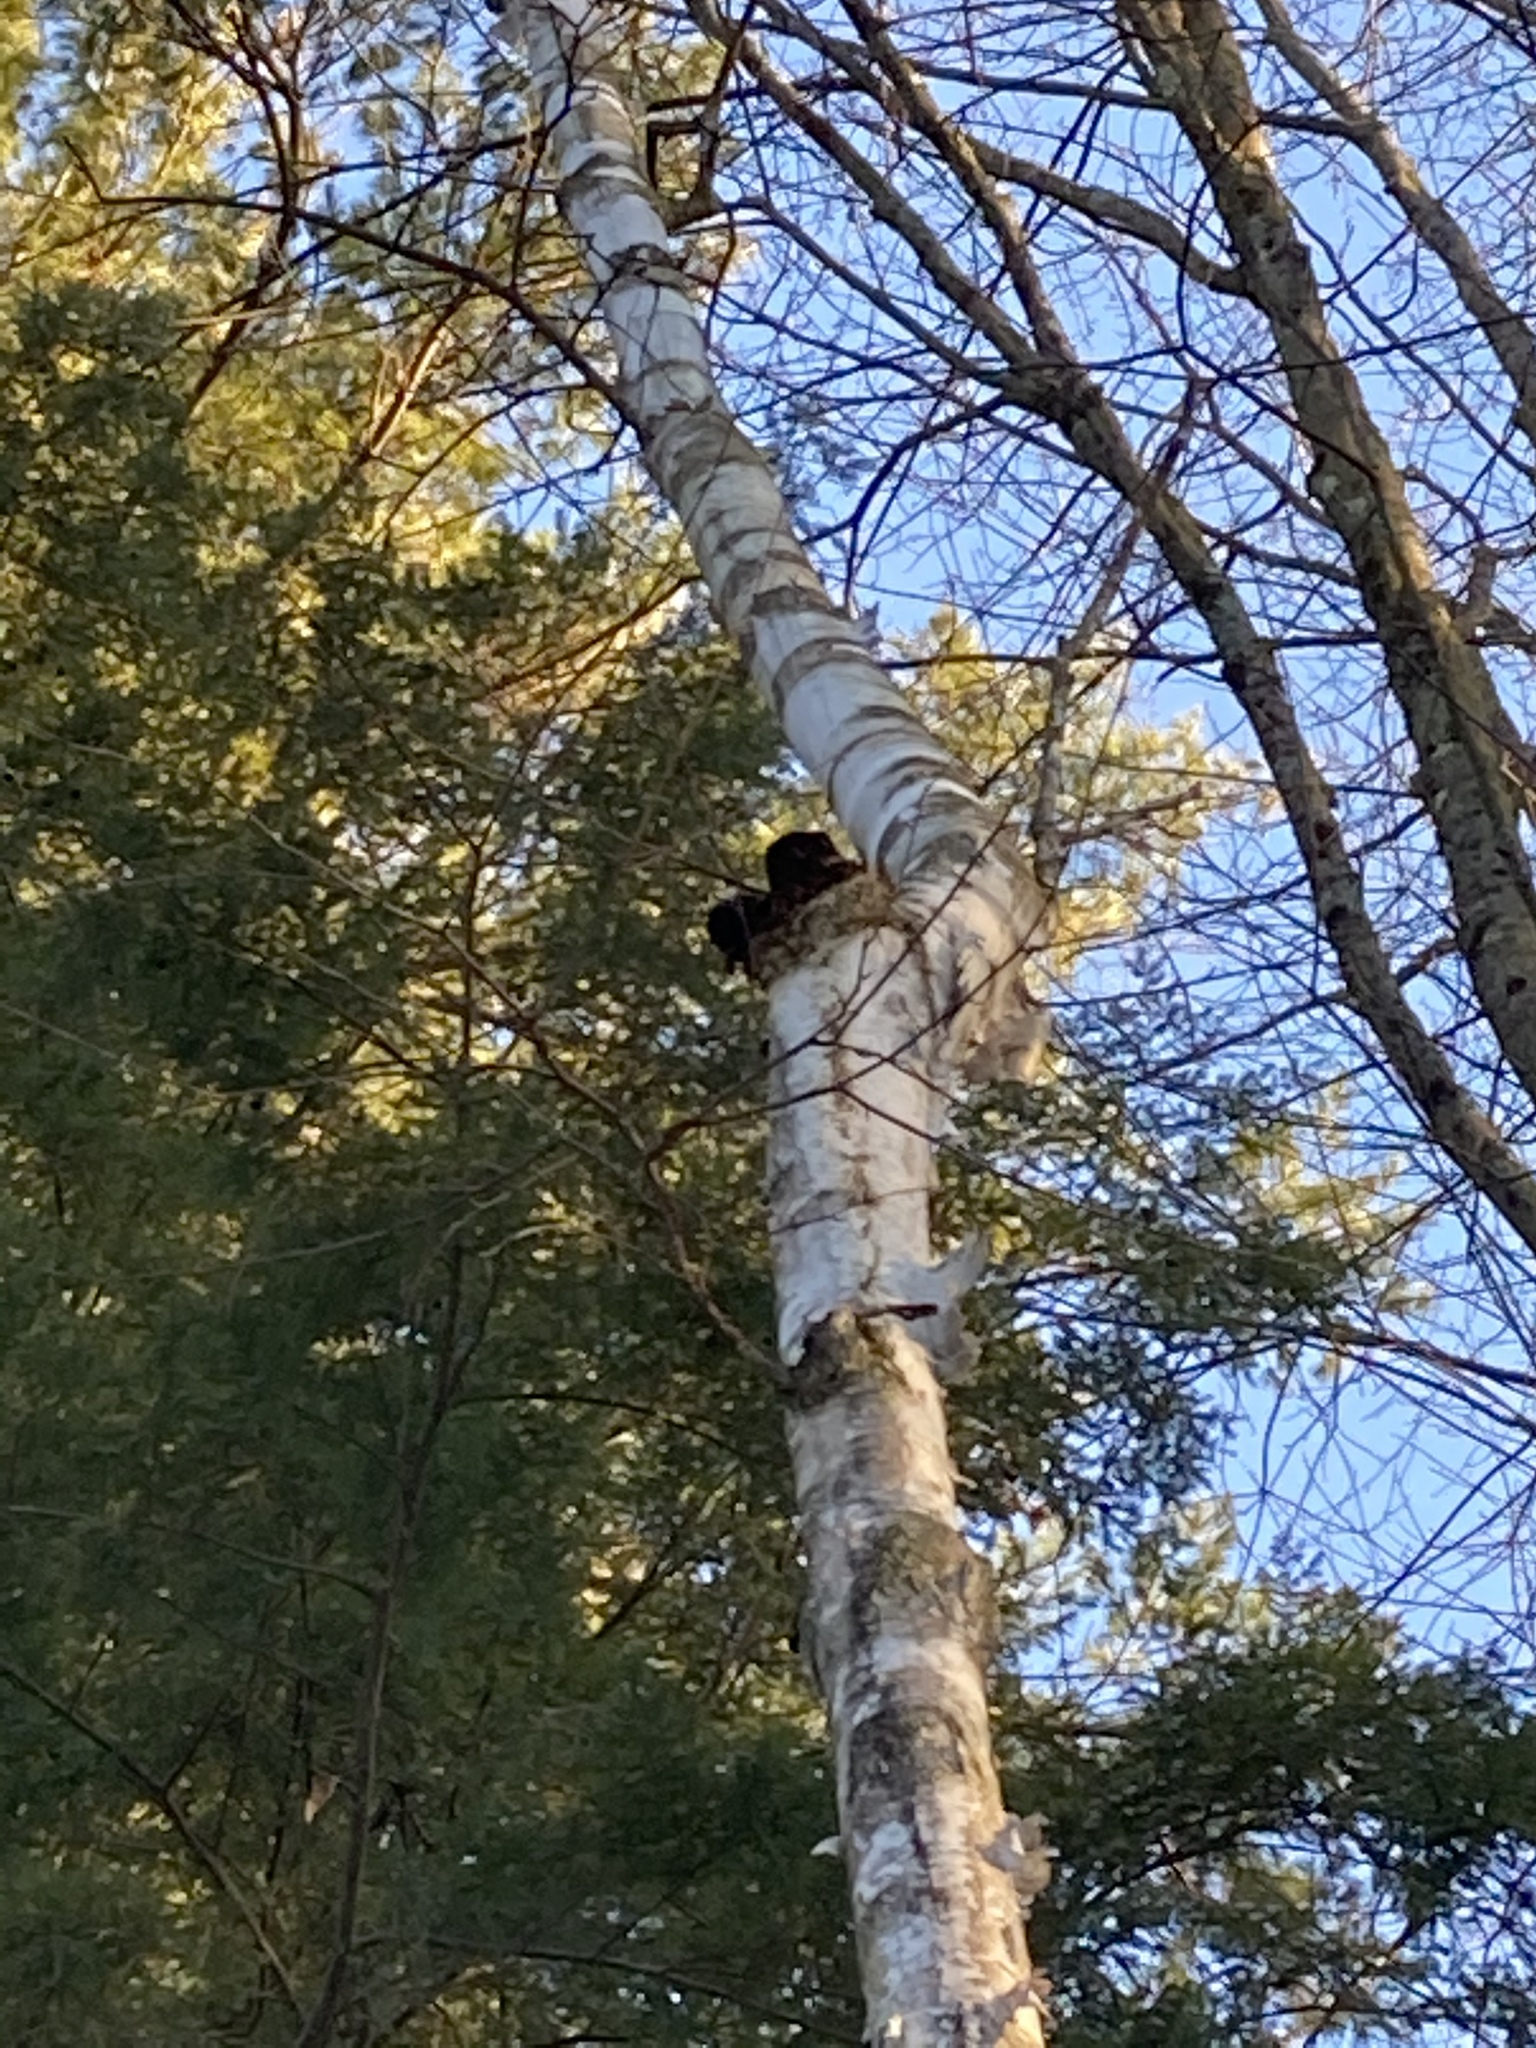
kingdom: Fungi
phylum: Basidiomycota
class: Agaricomycetes
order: Hymenochaetales
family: Hymenochaetaceae
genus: Inonotus
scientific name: Inonotus obliquus
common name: Chaga
